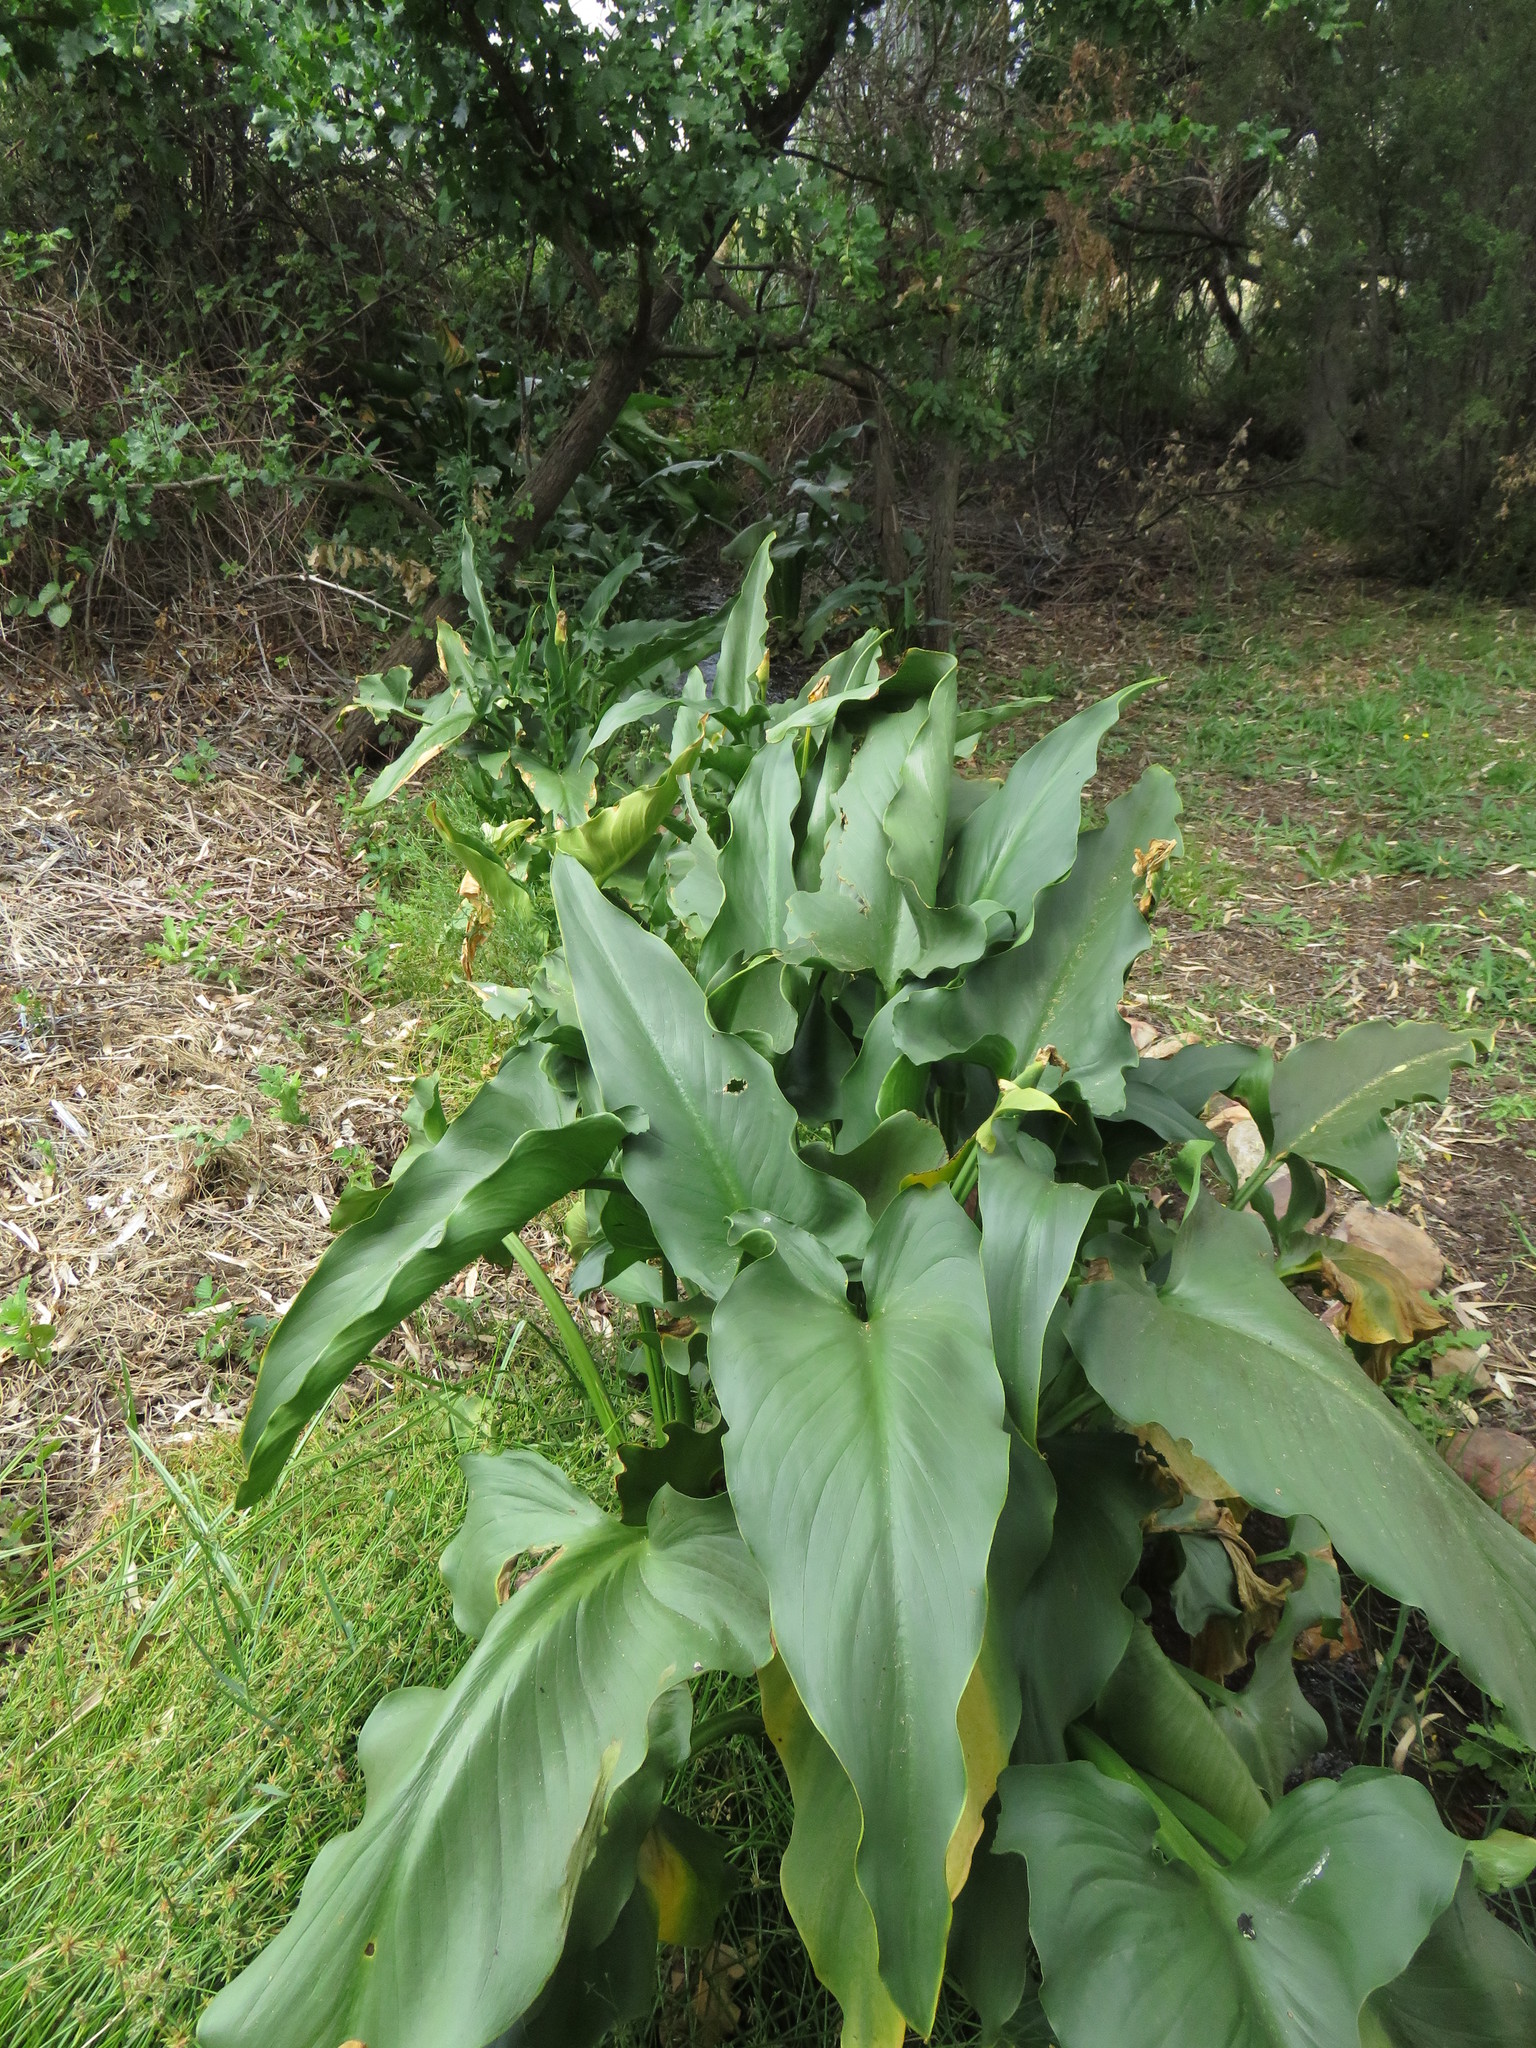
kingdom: Plantae
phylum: Tracheophyta
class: Liliopsida
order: Alismatales
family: Araceae
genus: Zantedeschia
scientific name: Zantedeschia aethiopica
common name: Altar-lily
